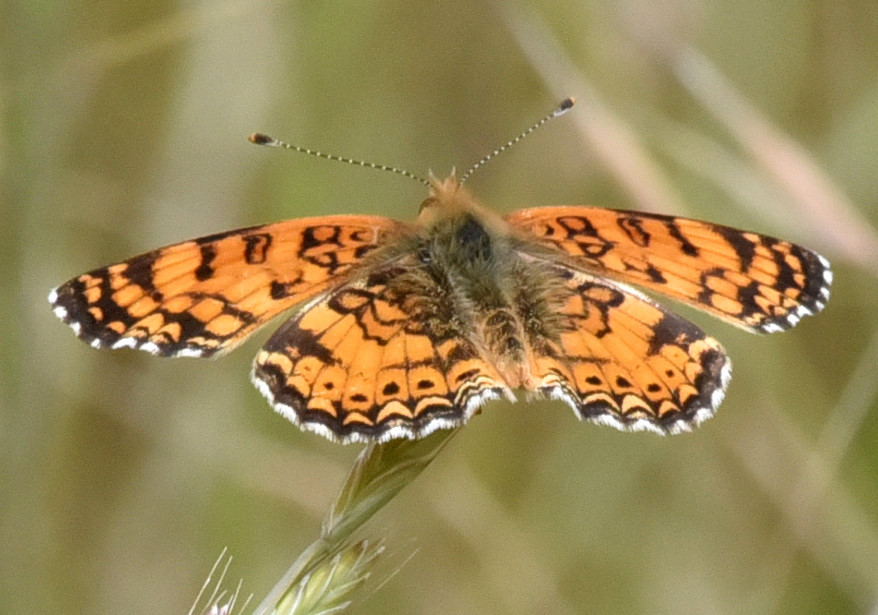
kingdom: Animalia
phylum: Arthropoda
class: Insecta
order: Lepidoptera
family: Nymphalidae
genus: Eresia
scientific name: Eresia aveyrona
